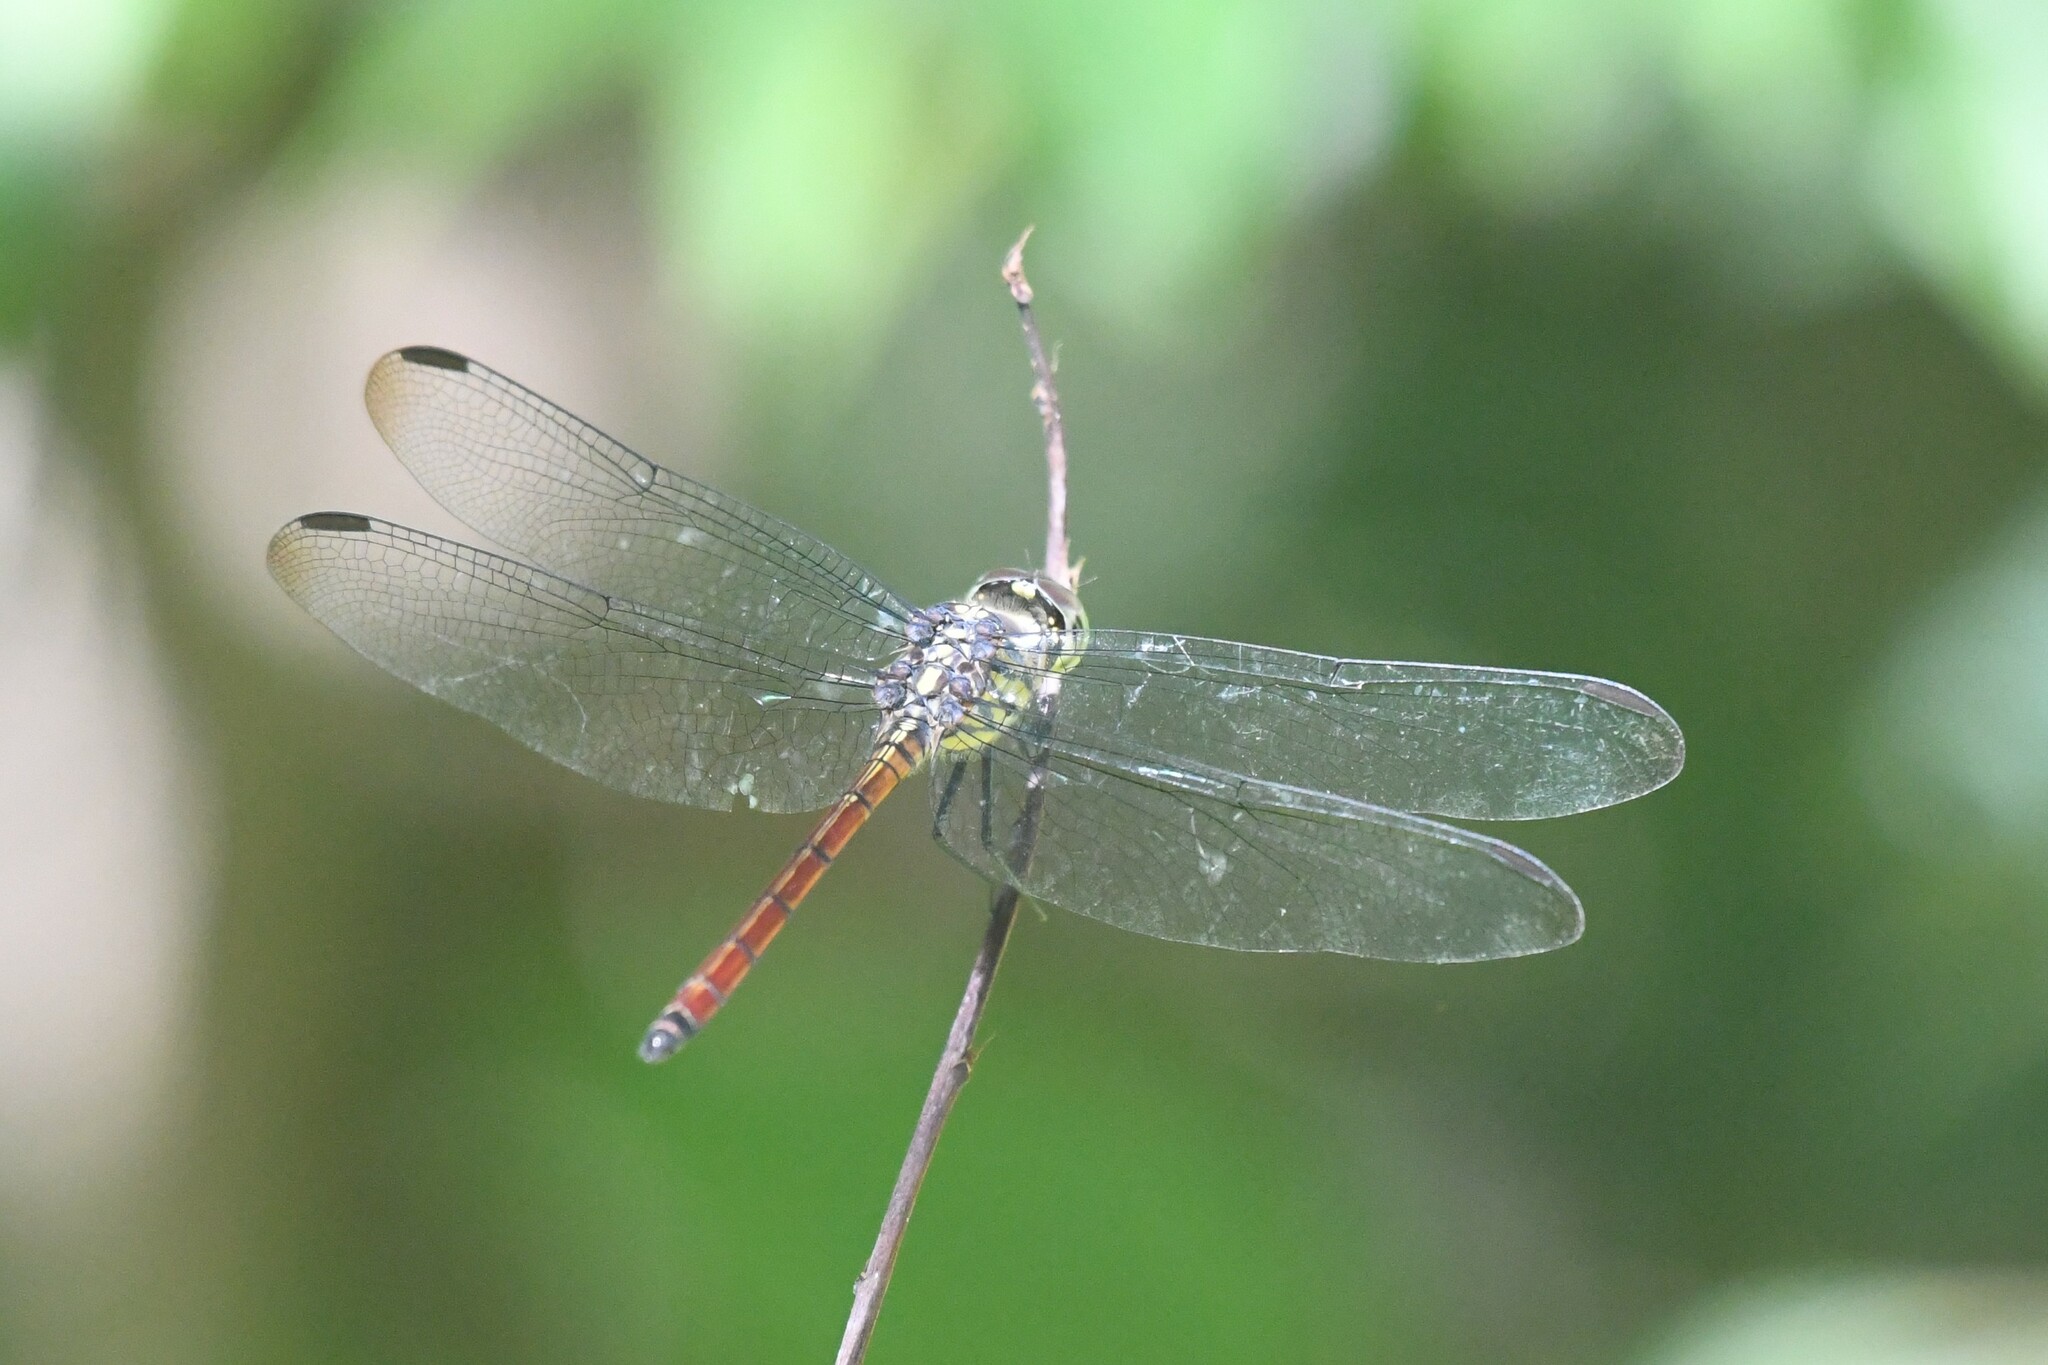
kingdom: Animalia
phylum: Arthropoda
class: Insecta
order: Odonata
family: Libellulidae
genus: Lathrecista
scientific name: Lathrecista asiatica
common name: Scarlet grenadier
